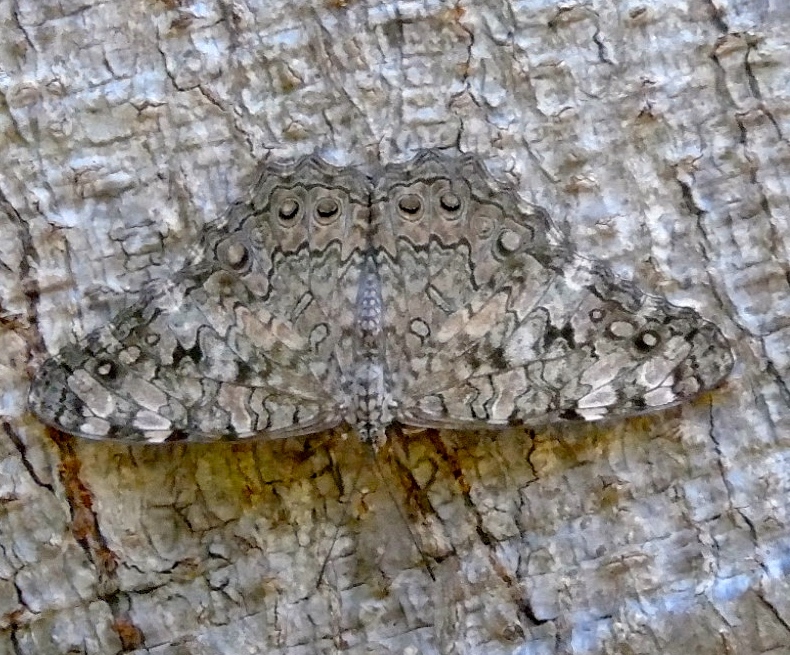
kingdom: Animalia
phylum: Arthropoda
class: Insecta
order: Lepidoptera
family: Nymphalidae
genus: Hamadryas
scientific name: Hamadryas februa
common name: Gray cracker
